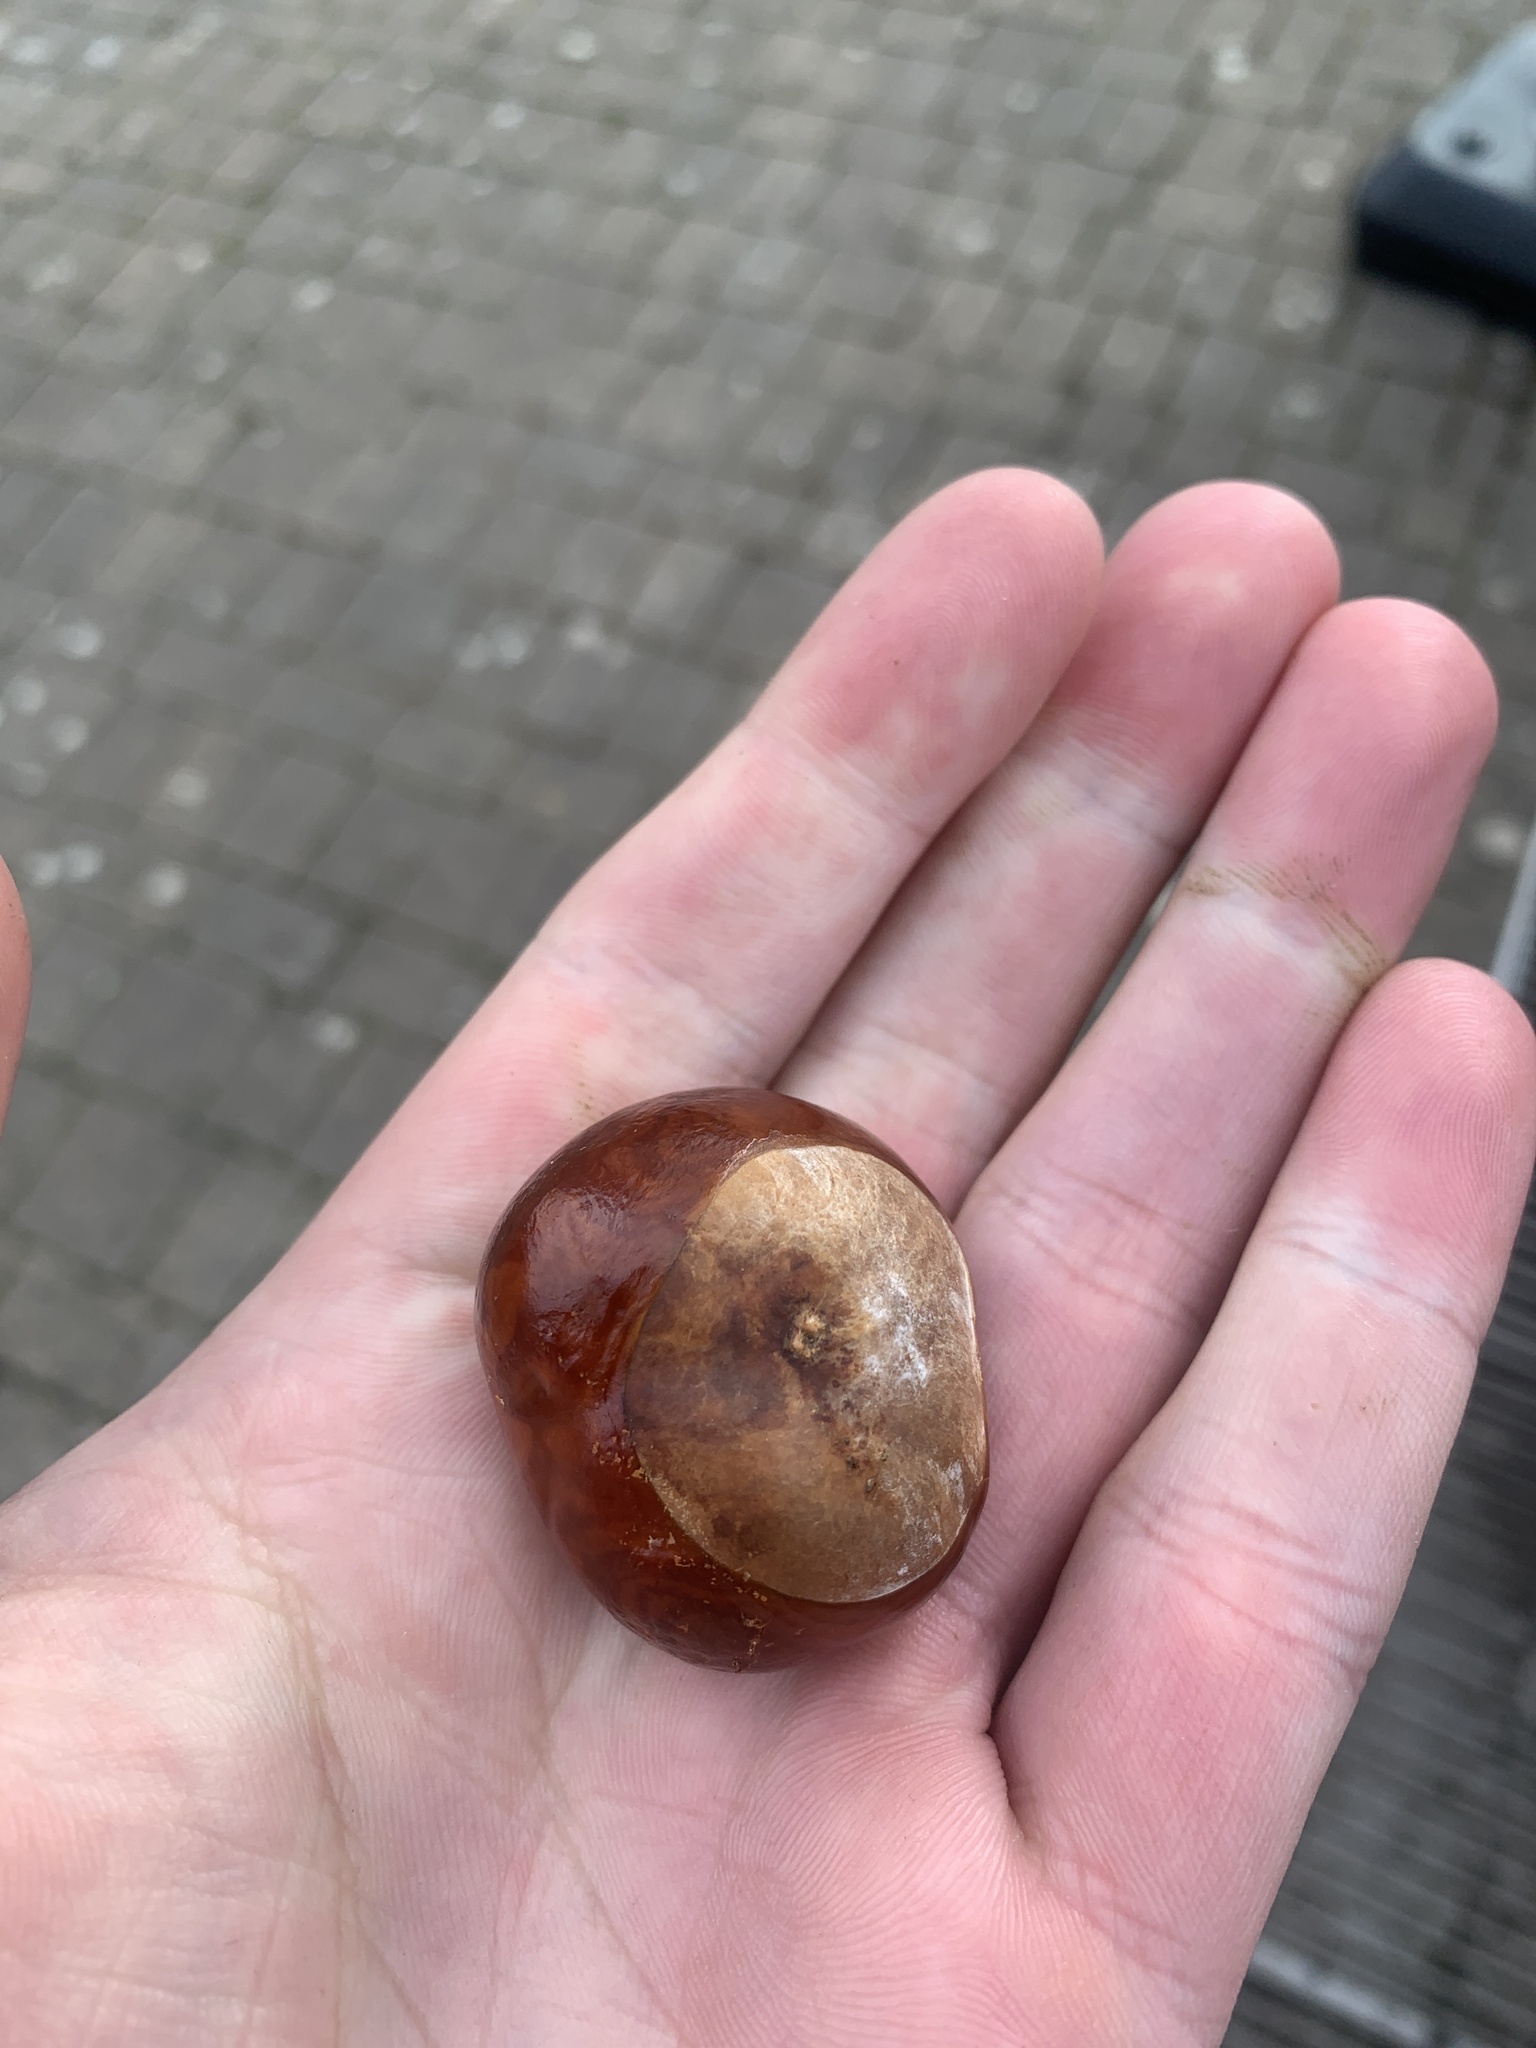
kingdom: Plantae
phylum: Tracheophyta
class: Magnoliopsida
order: Sapindales
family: Sapindaceae
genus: Aesculus
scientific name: Aesculus hippocastanum
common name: Horse-chestnut
